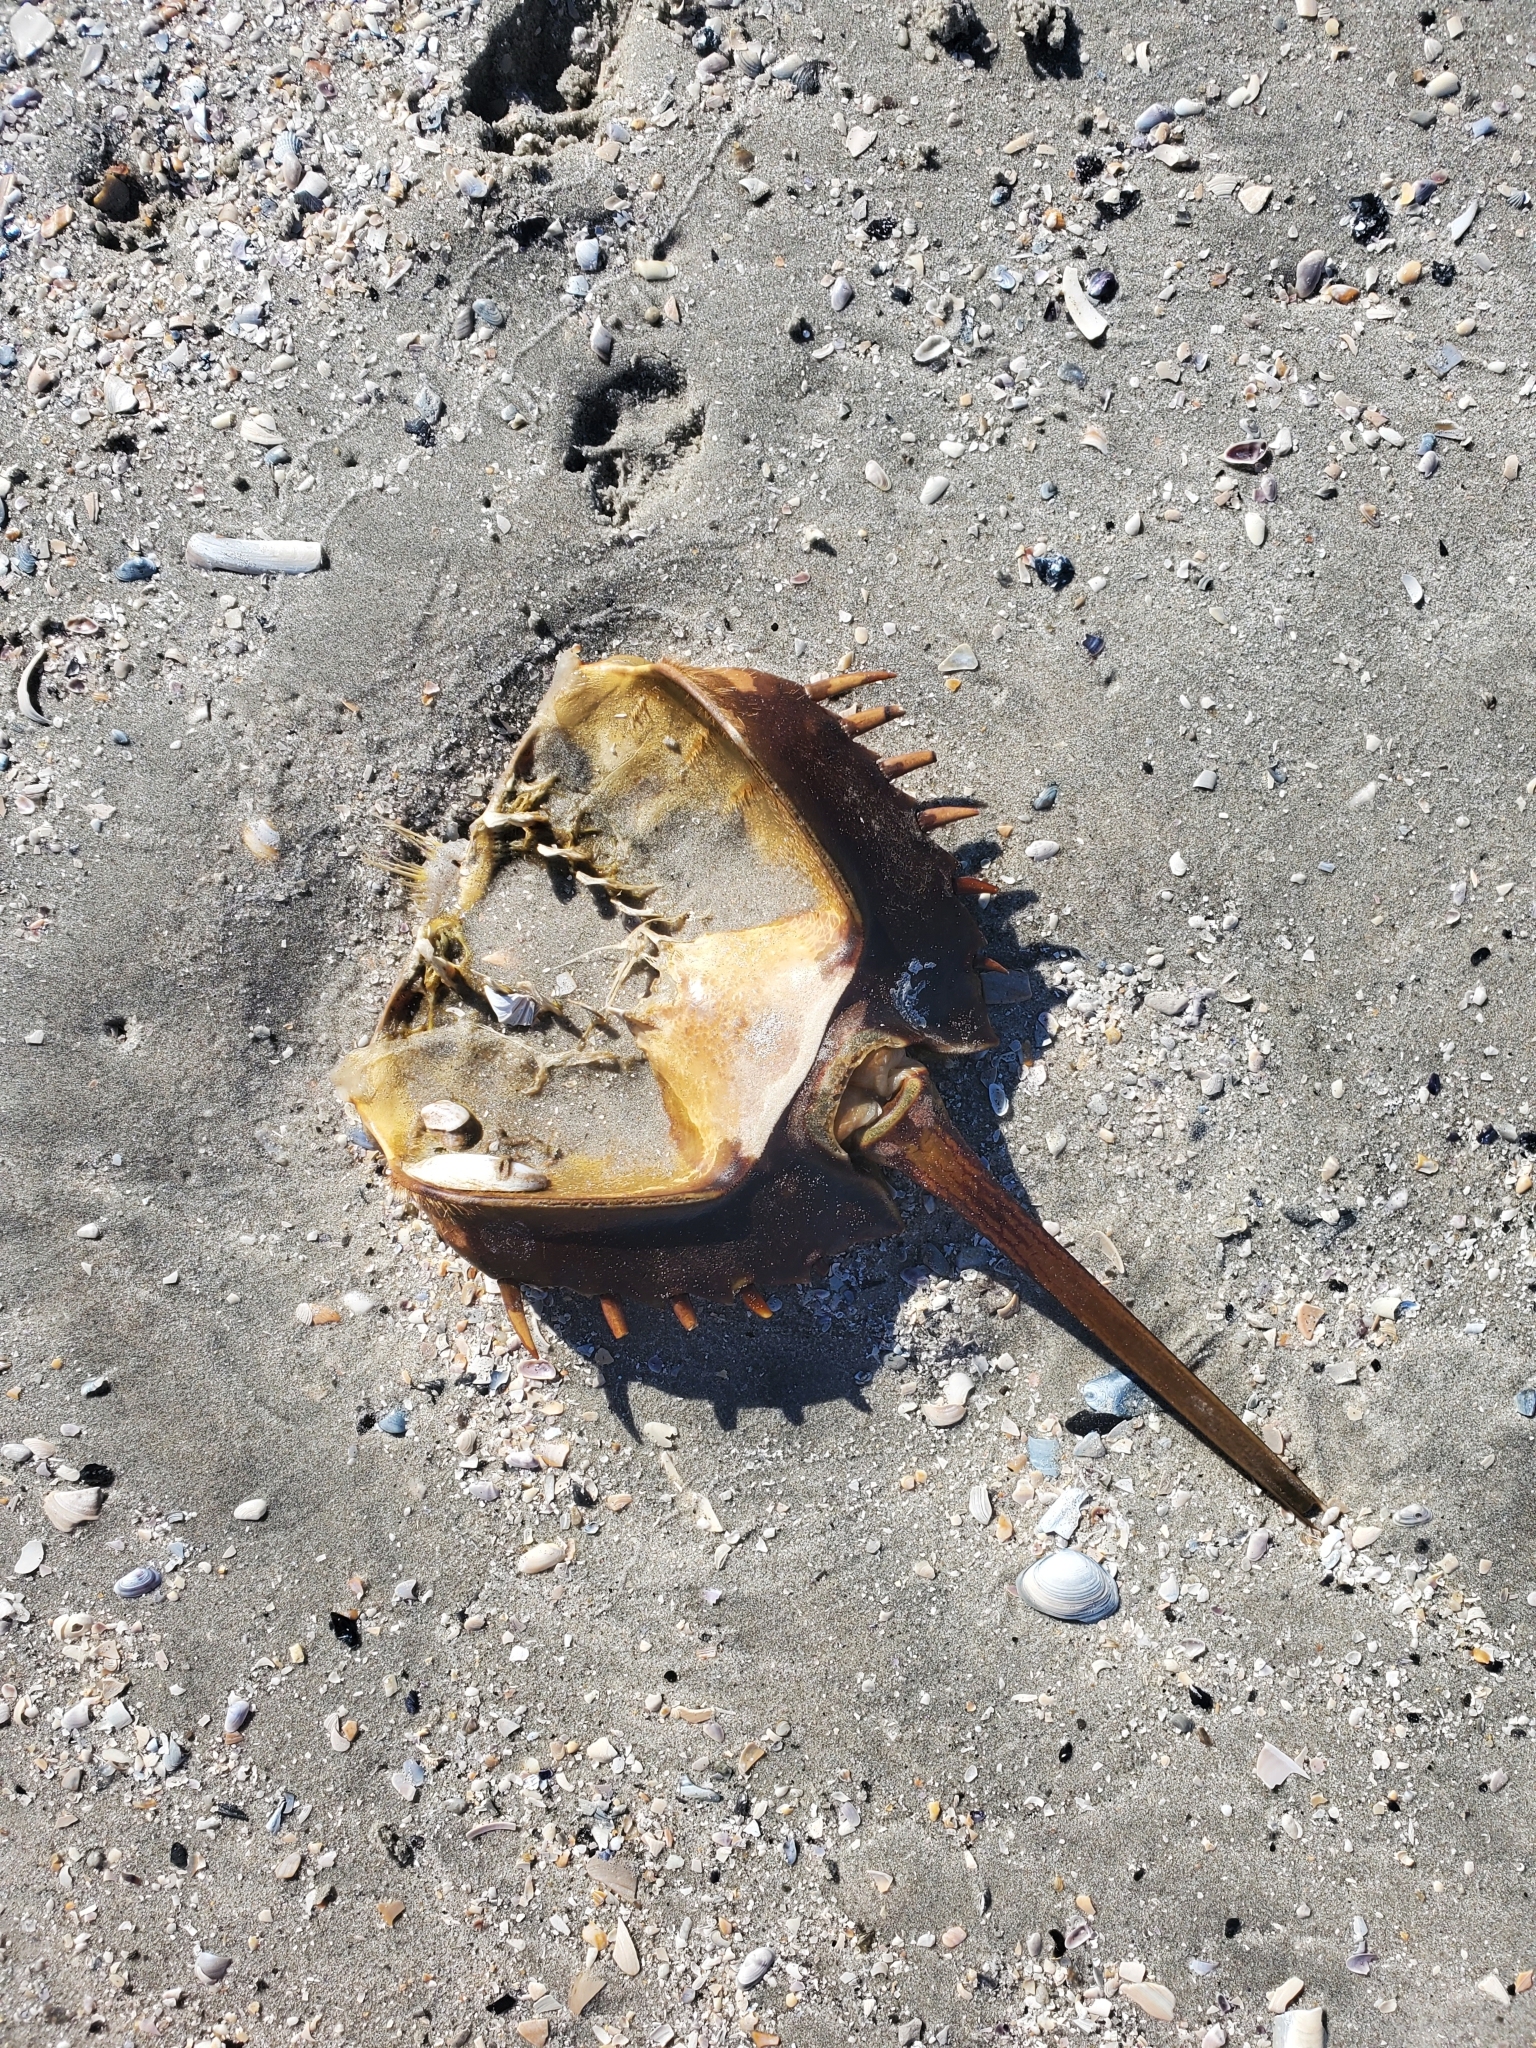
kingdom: Animalia
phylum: Arthropoda
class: Merostomata
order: Xiphosurida
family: Limulidae
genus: Limulus
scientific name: Limulus polyphemus
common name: Horseshoe crab
